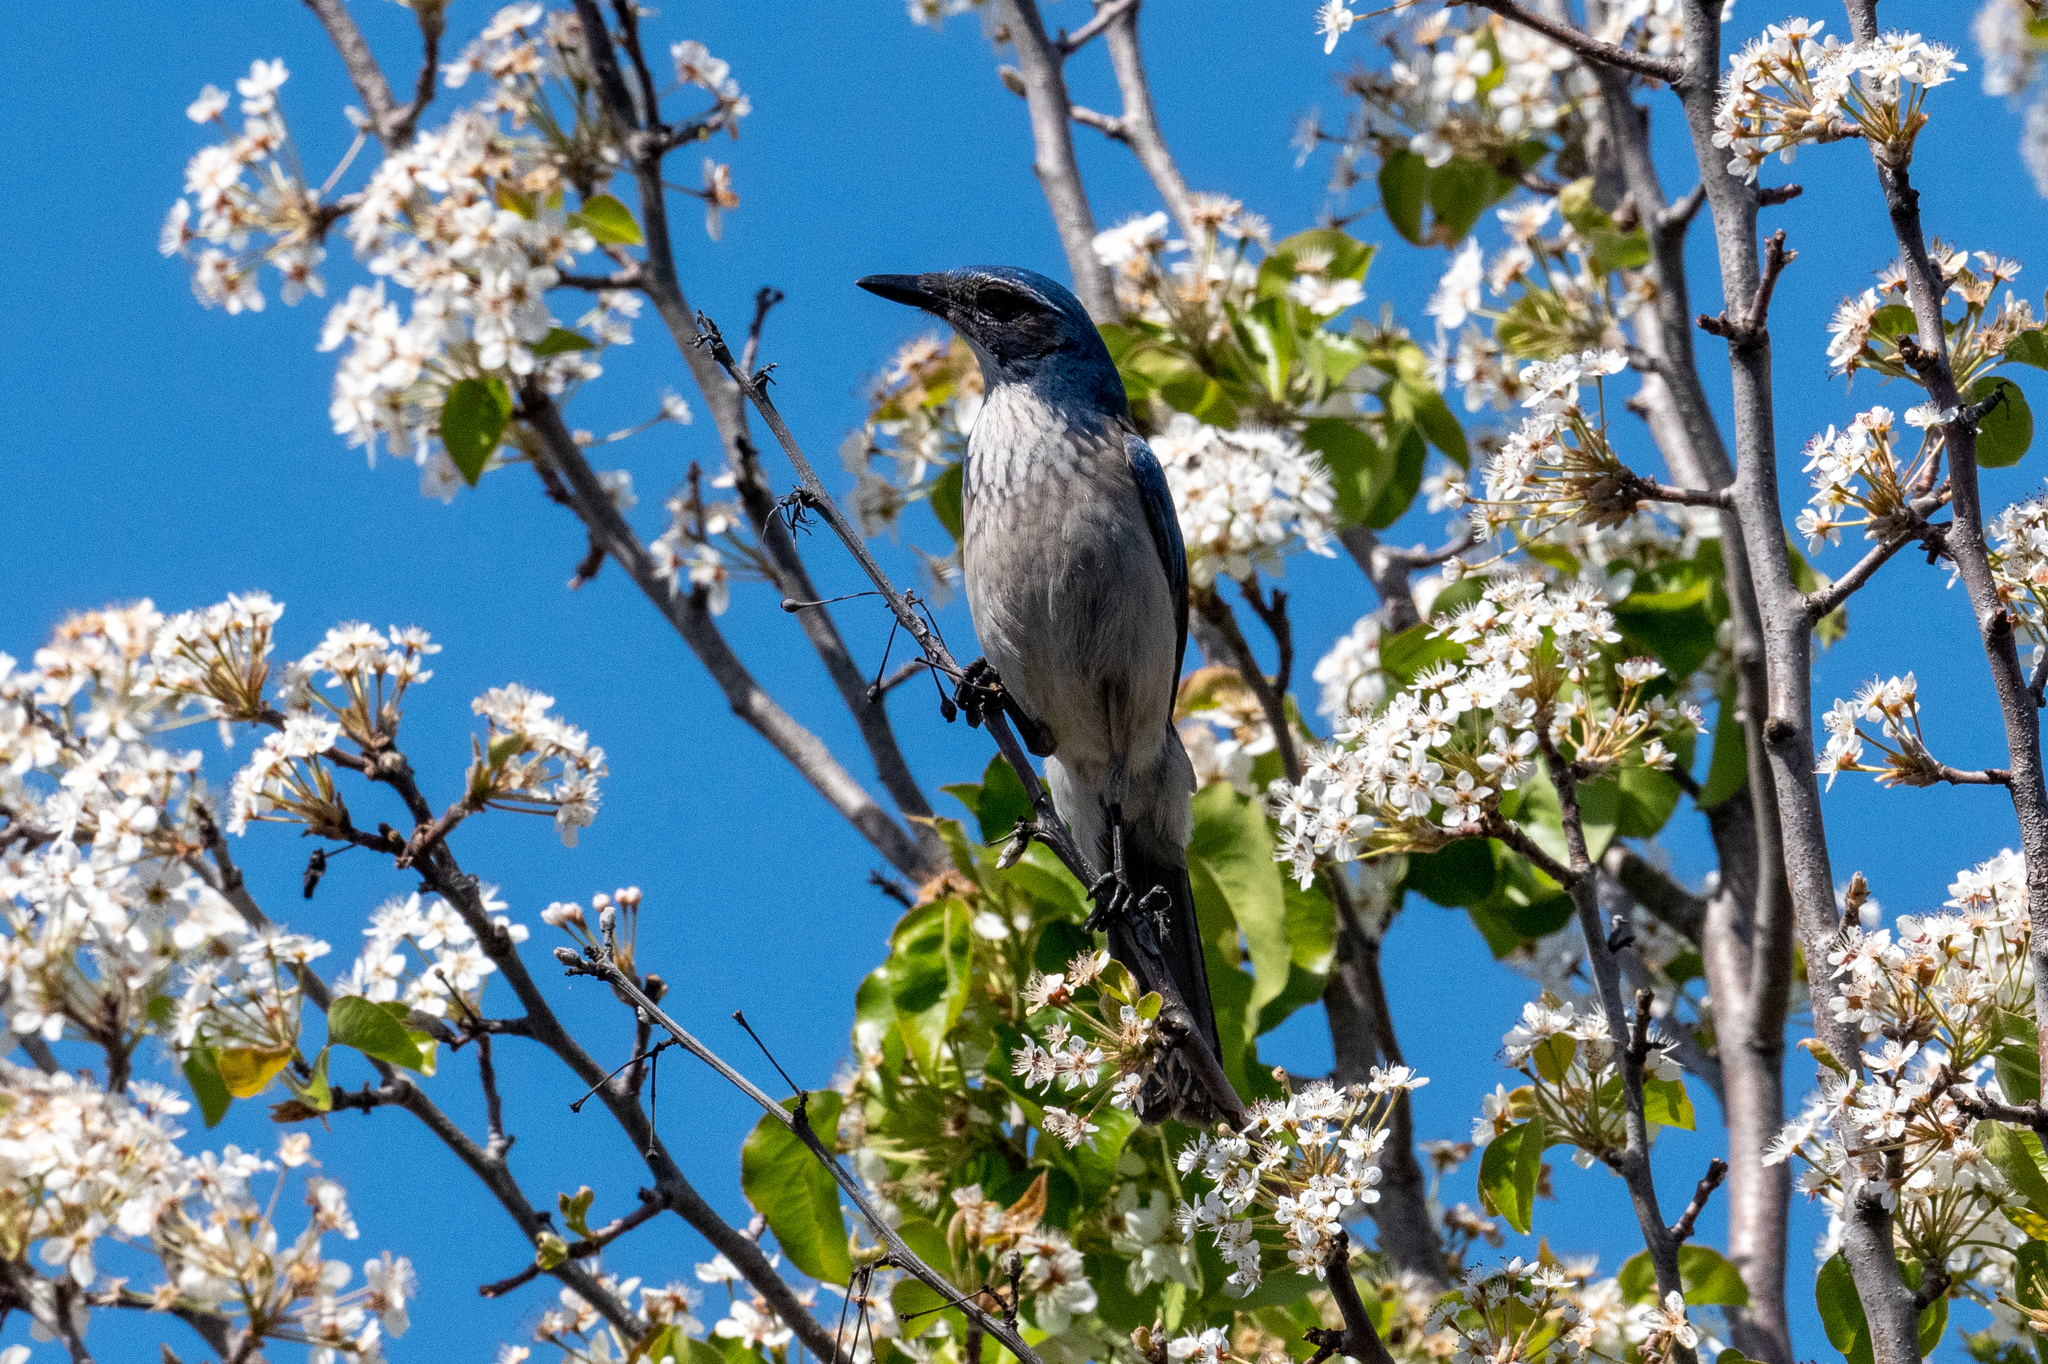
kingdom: Animalia
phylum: Chordata
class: Aves
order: Passeriformes
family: Corvidae
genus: Aphelocoma
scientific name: Aphelocoma californica
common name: California scrub-jay
